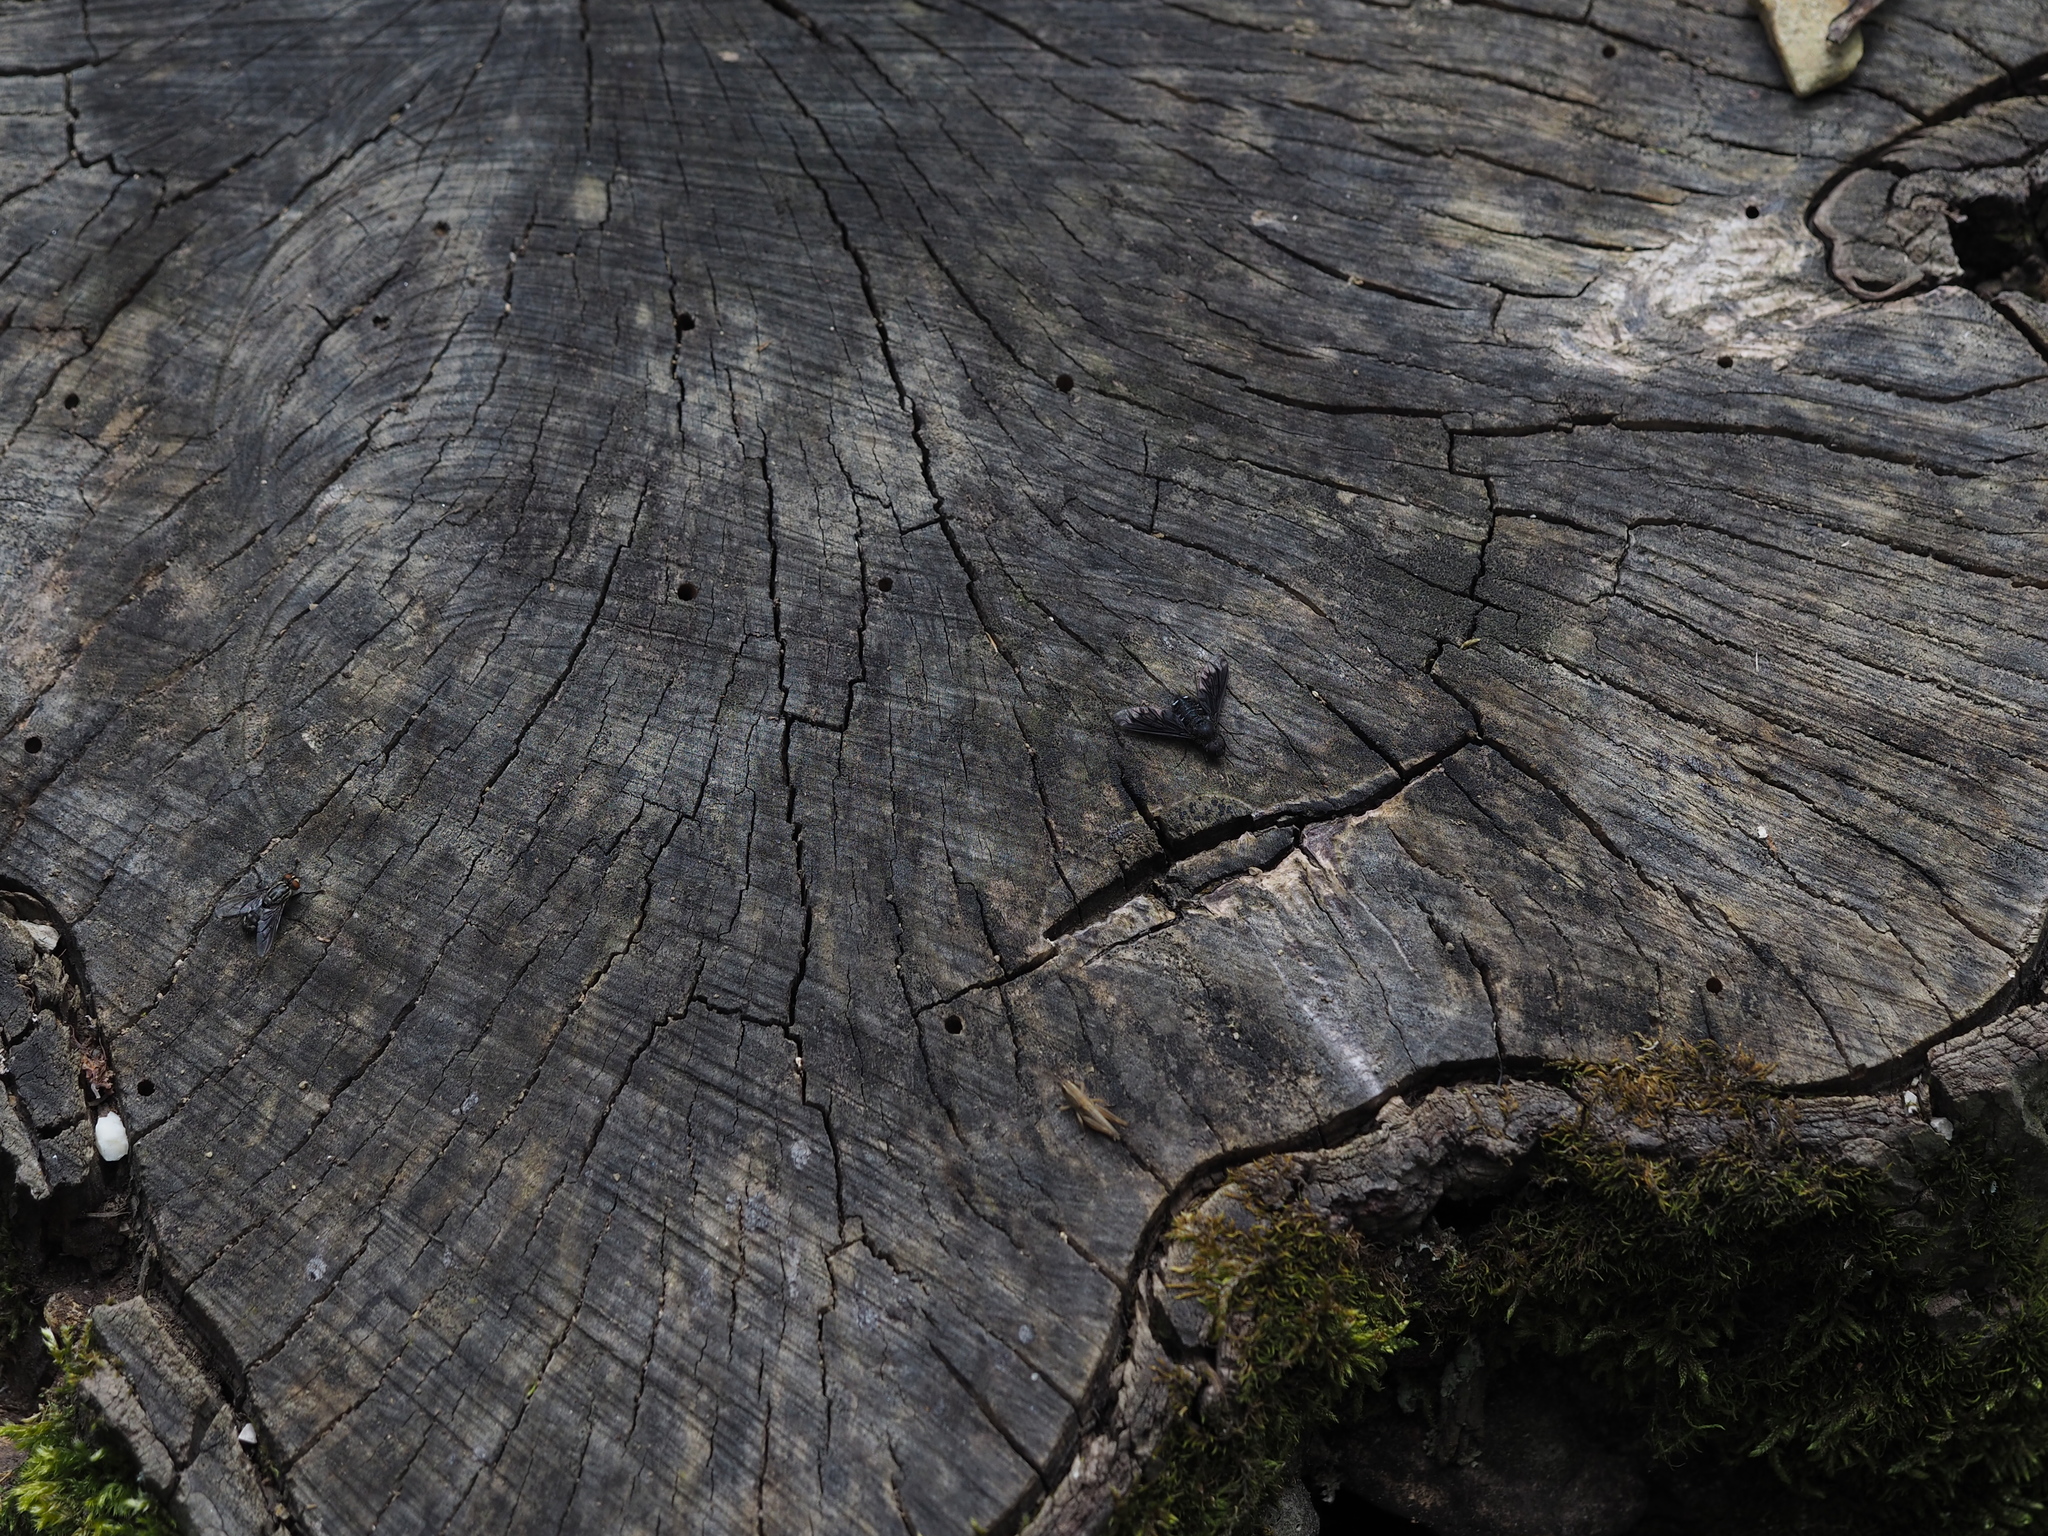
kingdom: Animalia
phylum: Arthropoda
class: Insecta
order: Diptera
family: Bombyliidae
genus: Anthrax
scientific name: Anthrax anthrax
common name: Anthracite bee-fly
